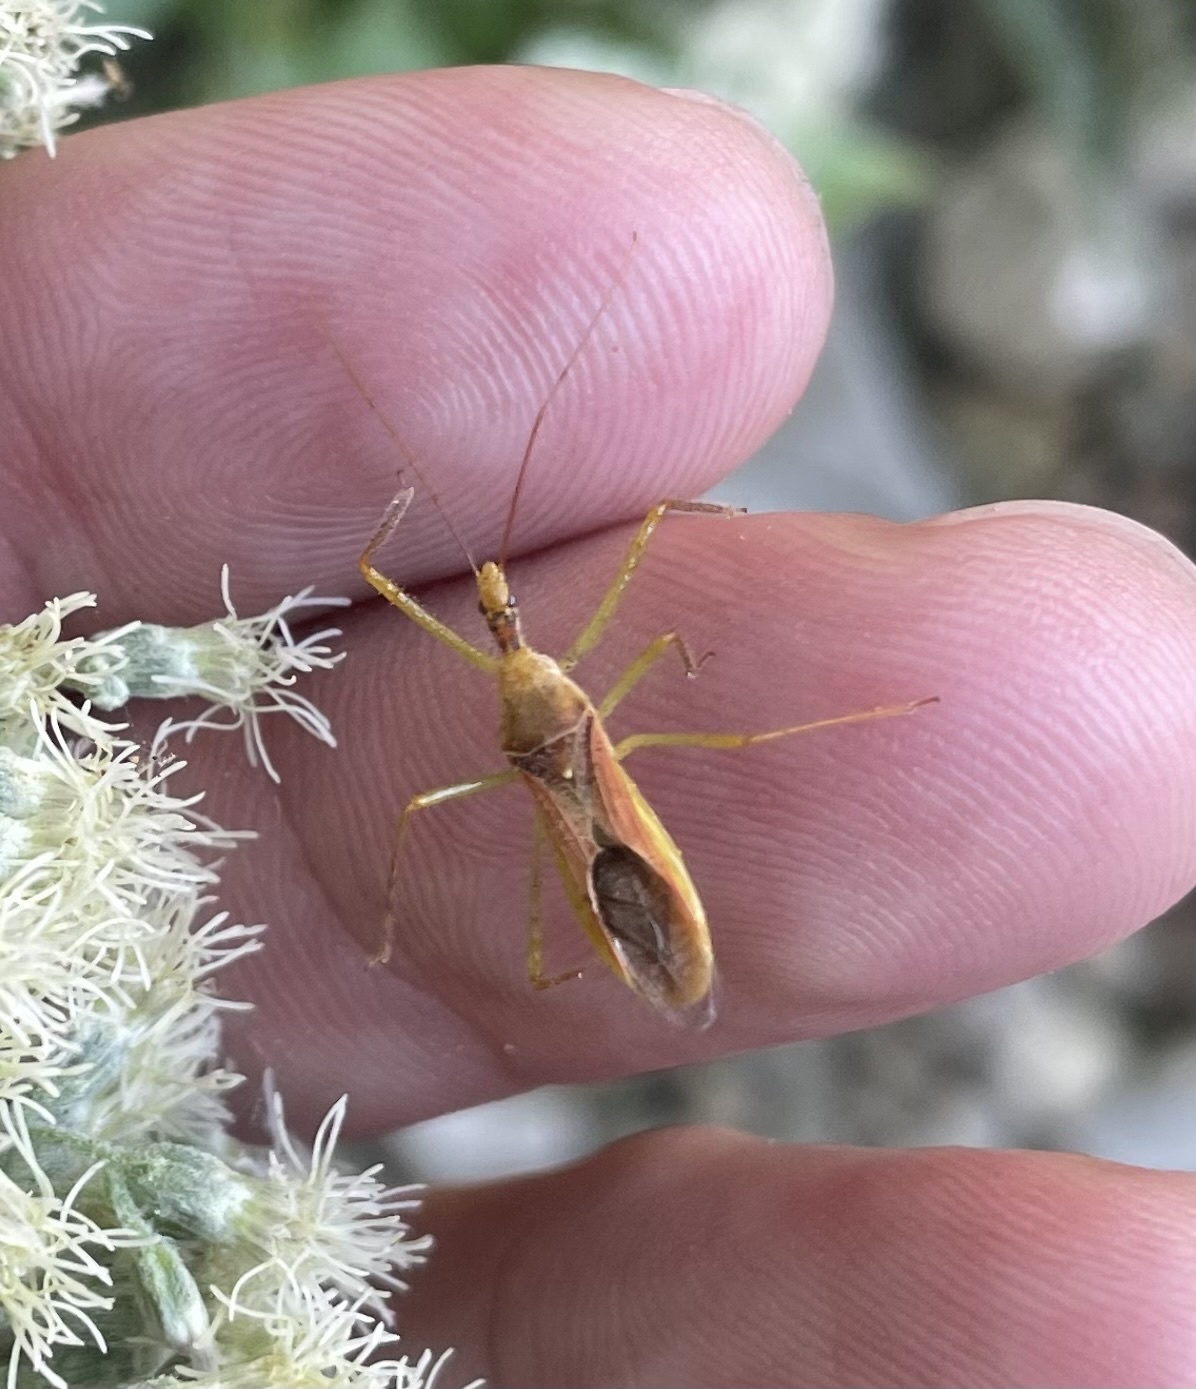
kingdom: Animalia
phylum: Arthropoda
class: Insecta
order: Hemiptera
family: Reduviidae
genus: Zelus
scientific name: Zelus renardii
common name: Assassin bug
